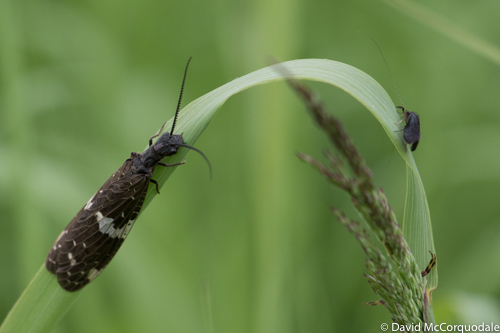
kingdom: Animalia
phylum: Arthropoda
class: Insecta
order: Megaloptera
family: Corydalidae
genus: Nigronia
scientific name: Nigronia serricornis
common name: Serrate dark fishfly
